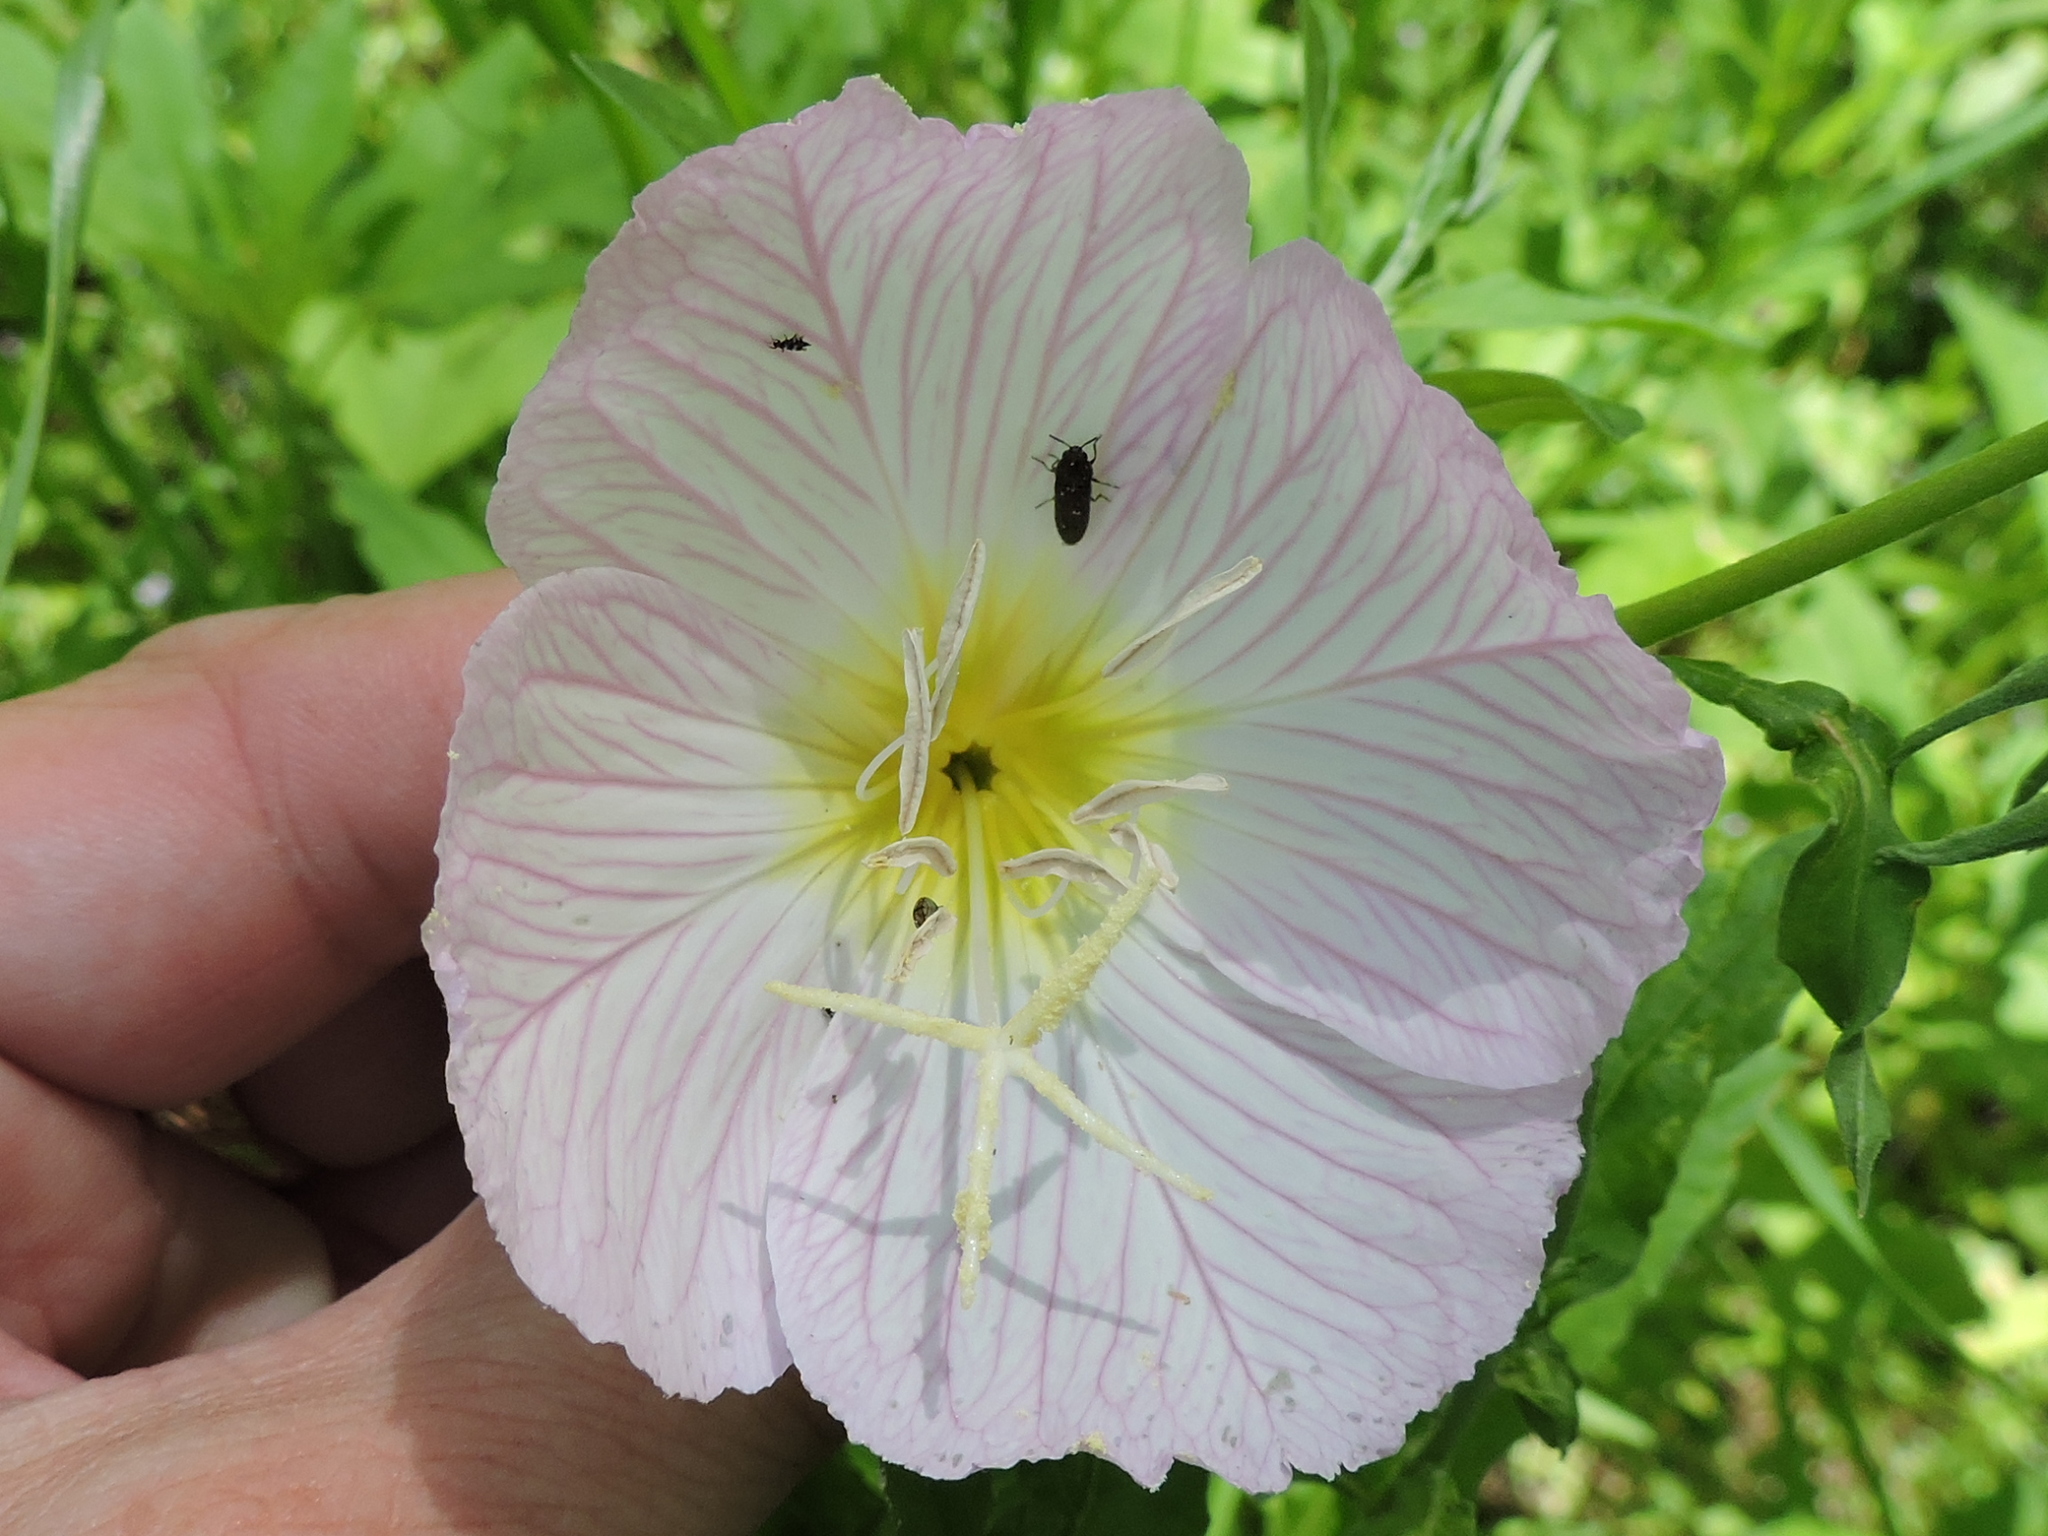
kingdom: Plantae
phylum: Tracheophyta
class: Magnoliopsida
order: Myrtales
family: Onagraceae
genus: Oenothera
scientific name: Oenothera speciosa
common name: White evening-primrose
